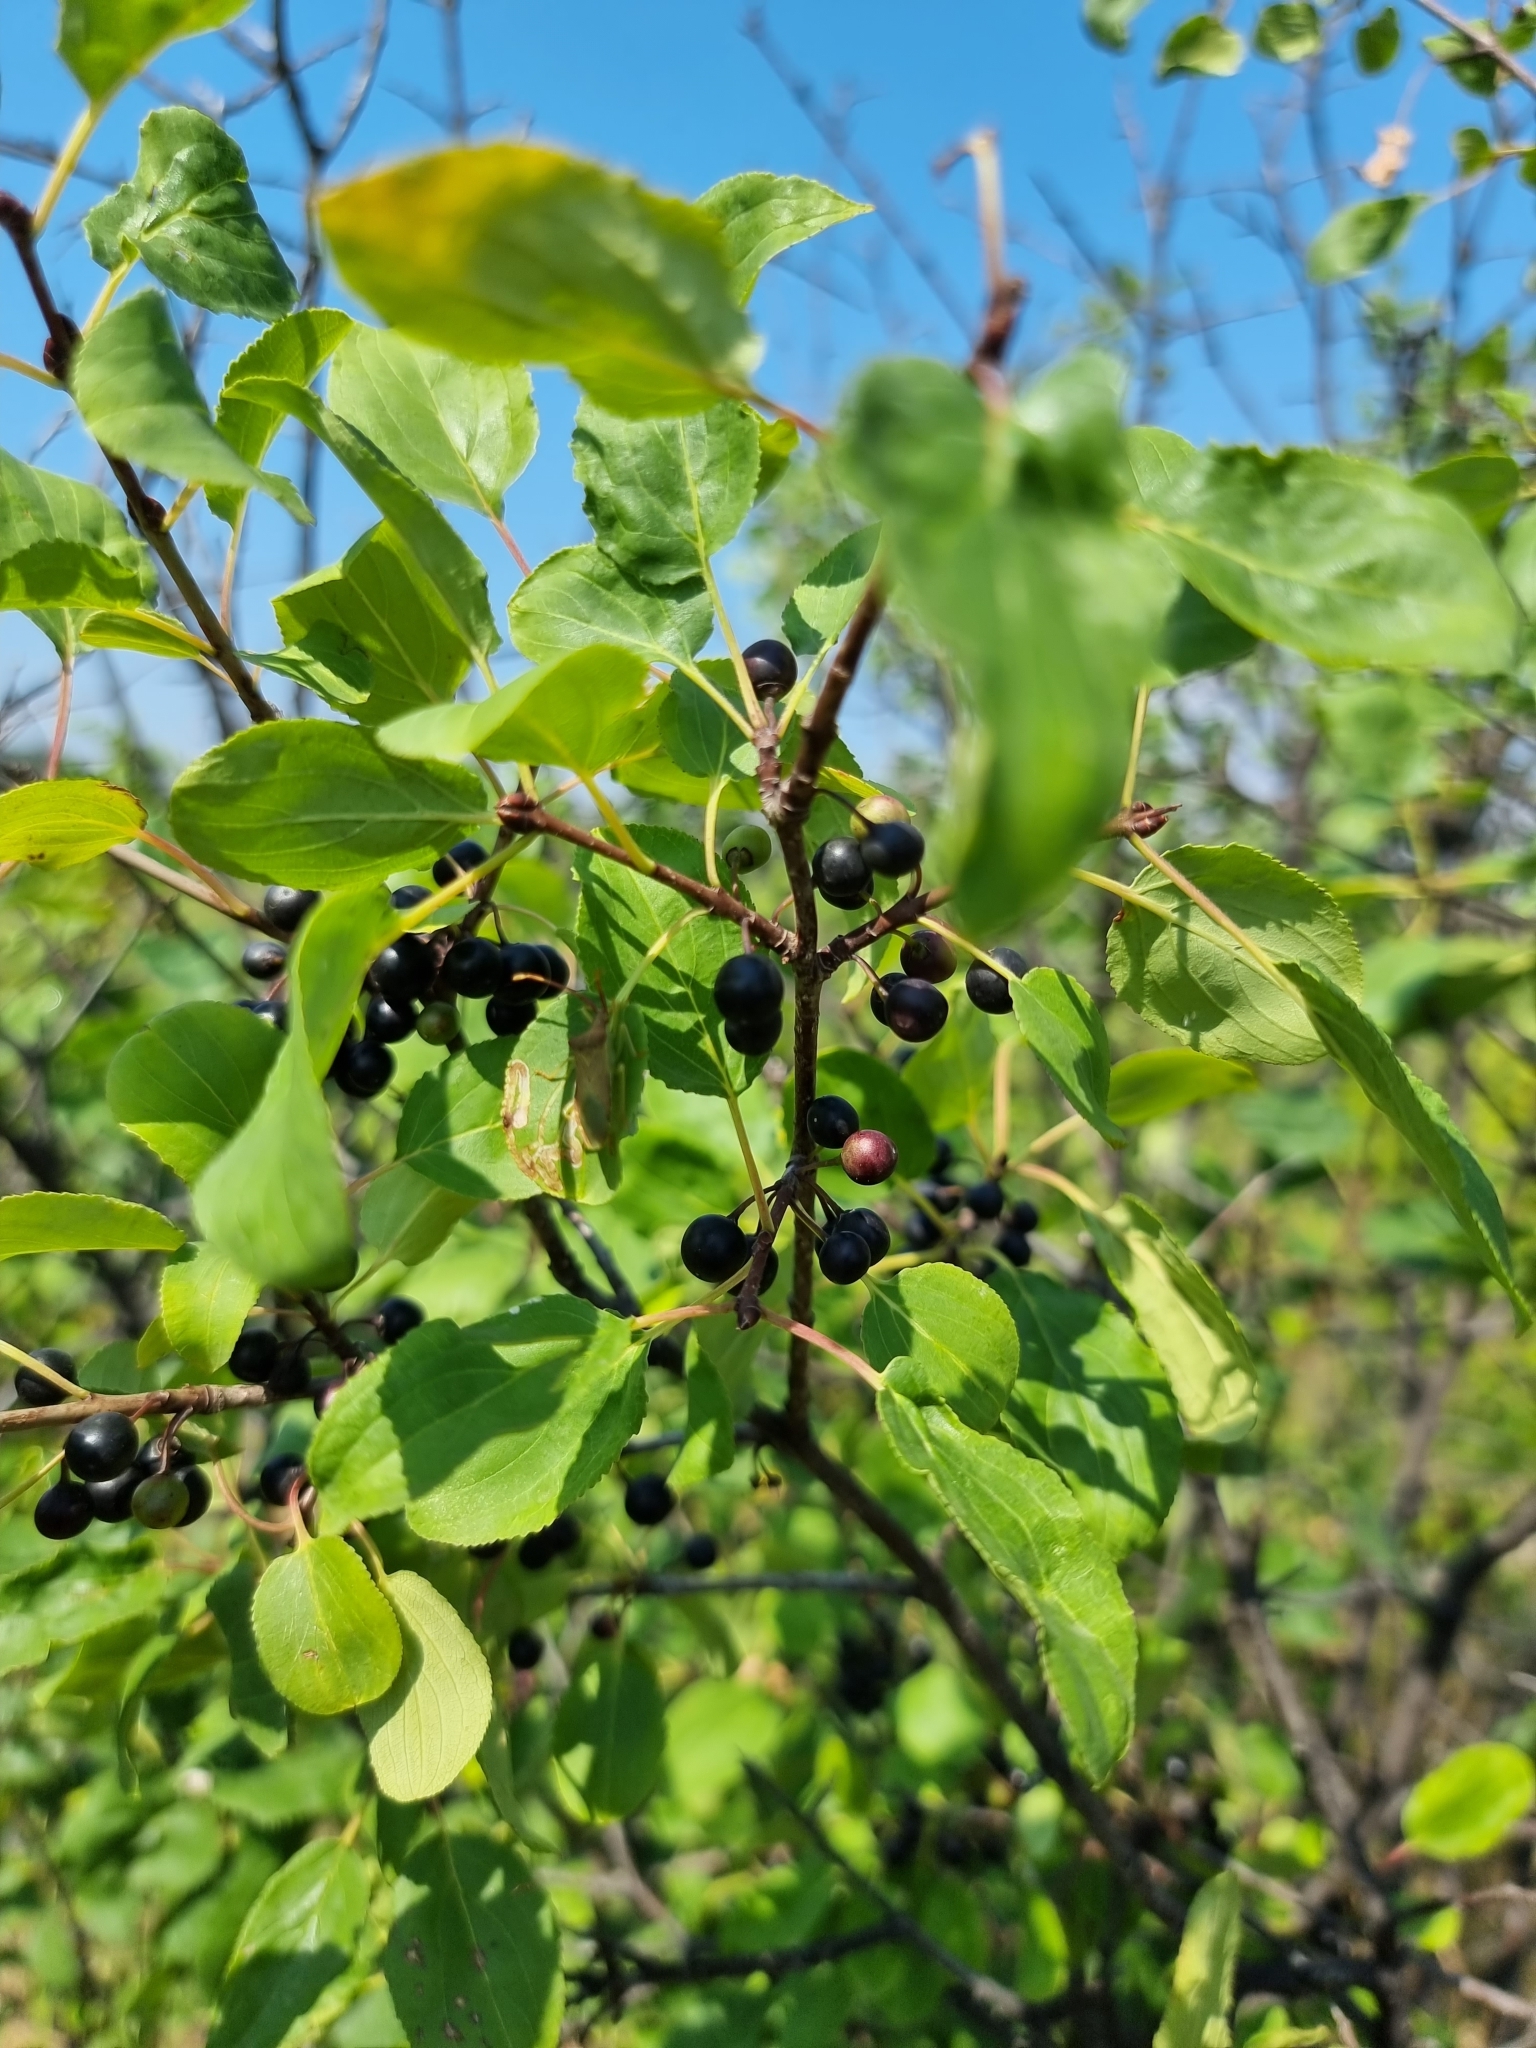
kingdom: Plantae
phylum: Tracheophyta
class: Magnoliopsida
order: Rosales
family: Rhamnaceae
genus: Rhamnus
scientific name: Rhamnus cathartica
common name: Common buckthorn
